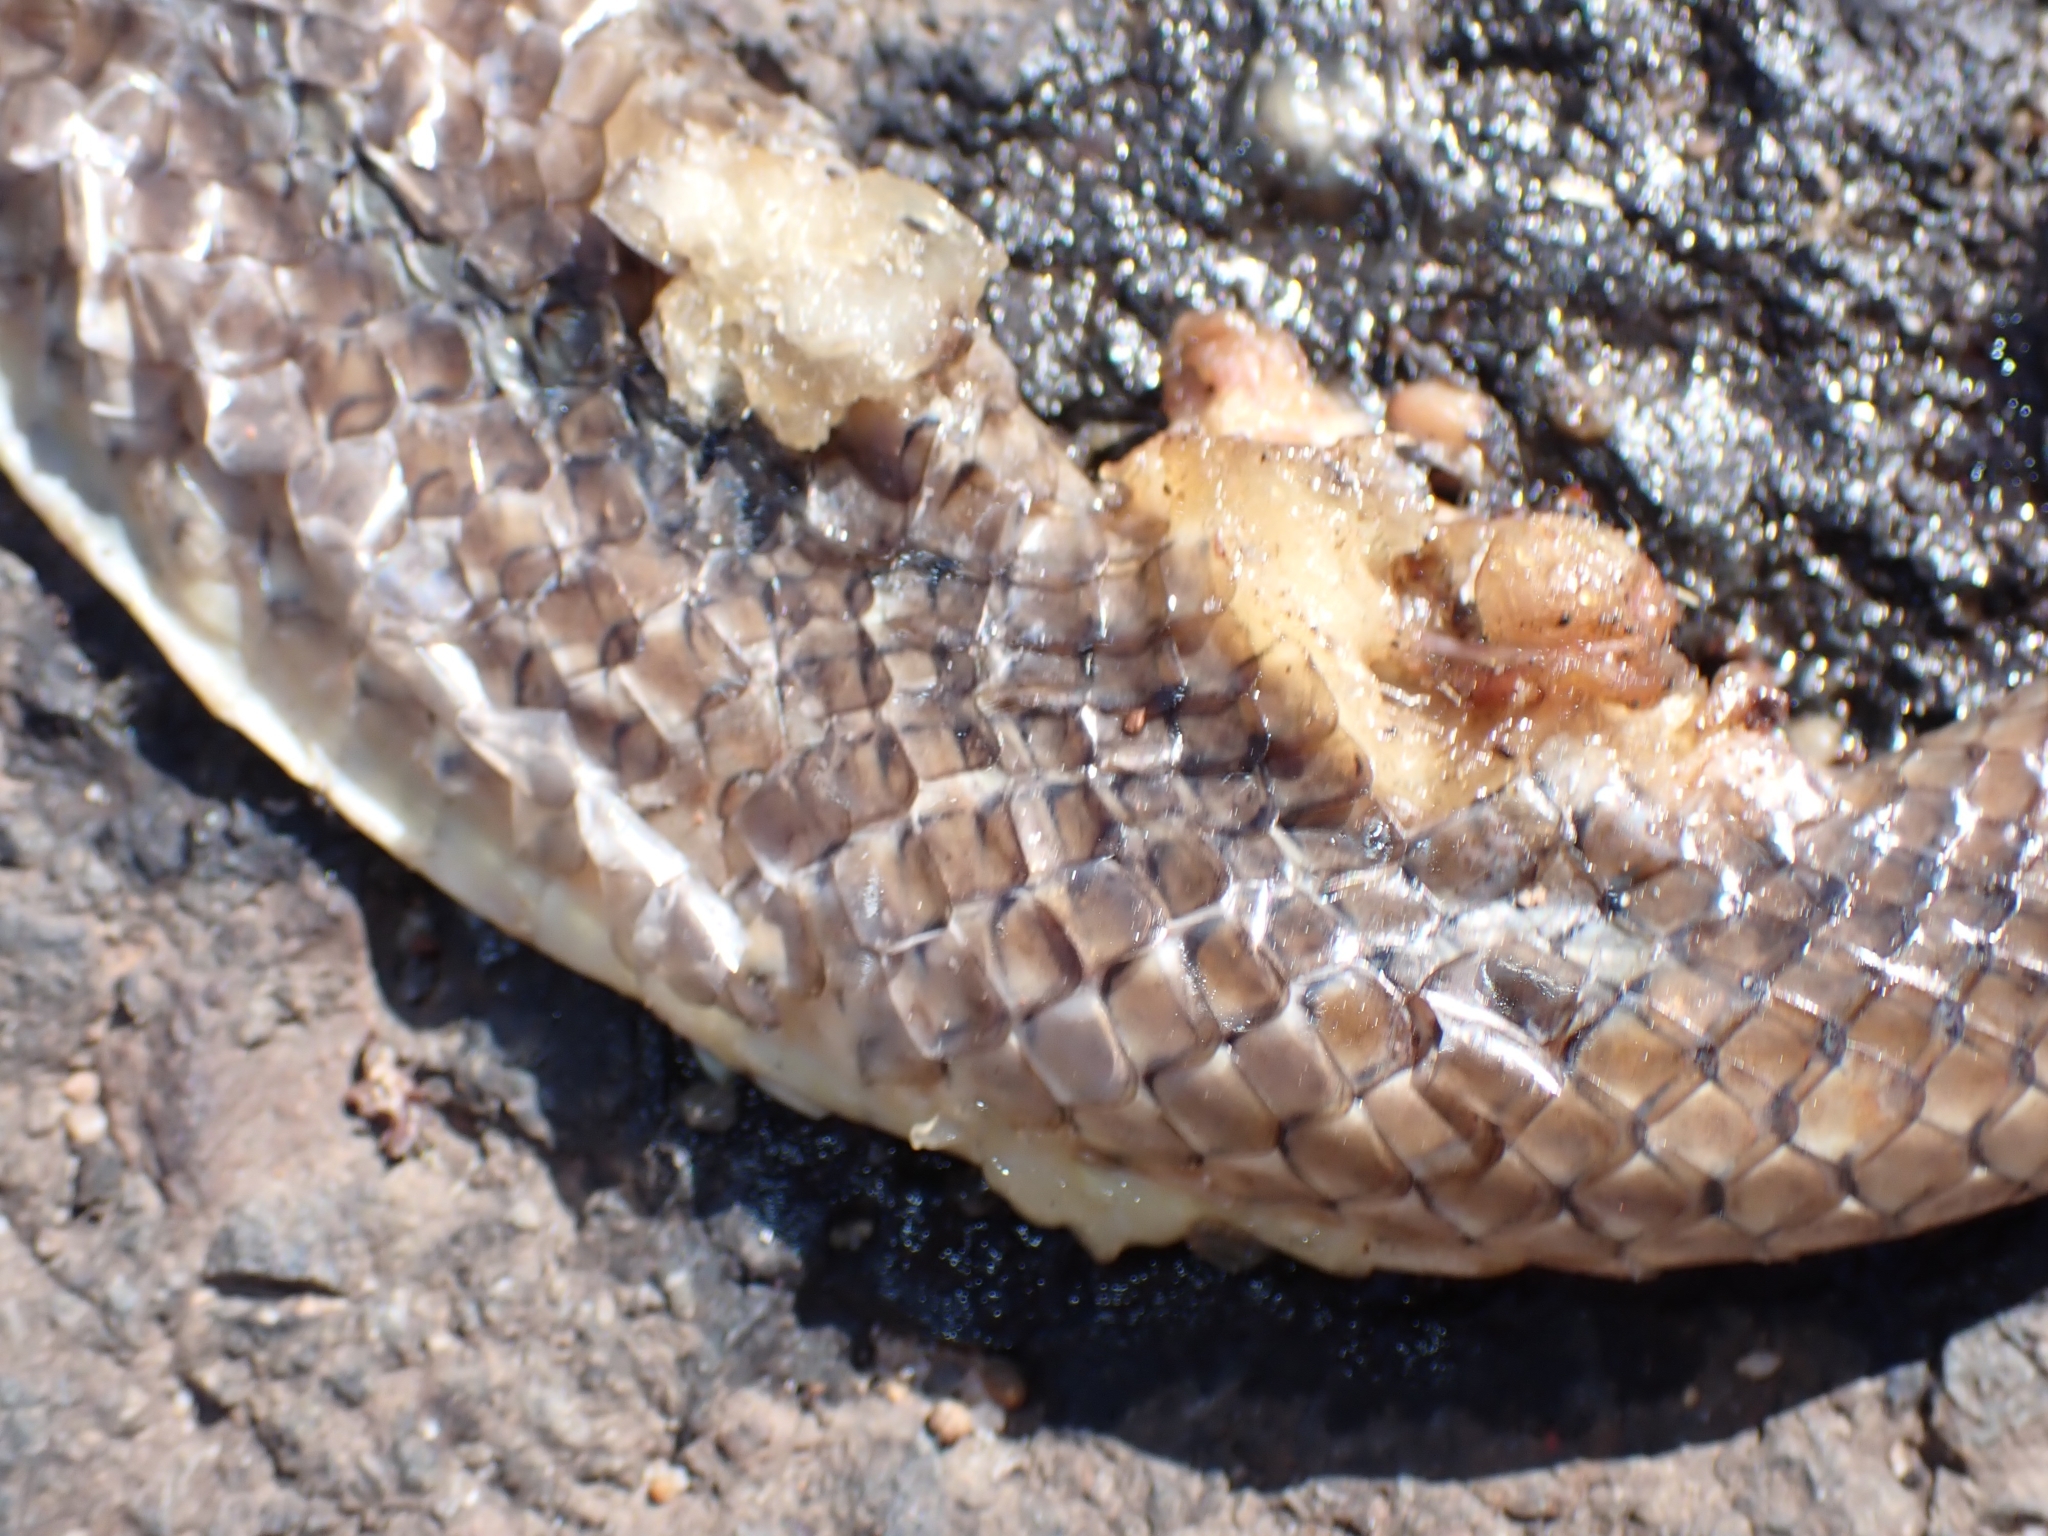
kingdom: Animalia
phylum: Chordata
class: Squamata
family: Colubridae
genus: Ptyas
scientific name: Ptyas korros
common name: Indo-chinese rat snake
